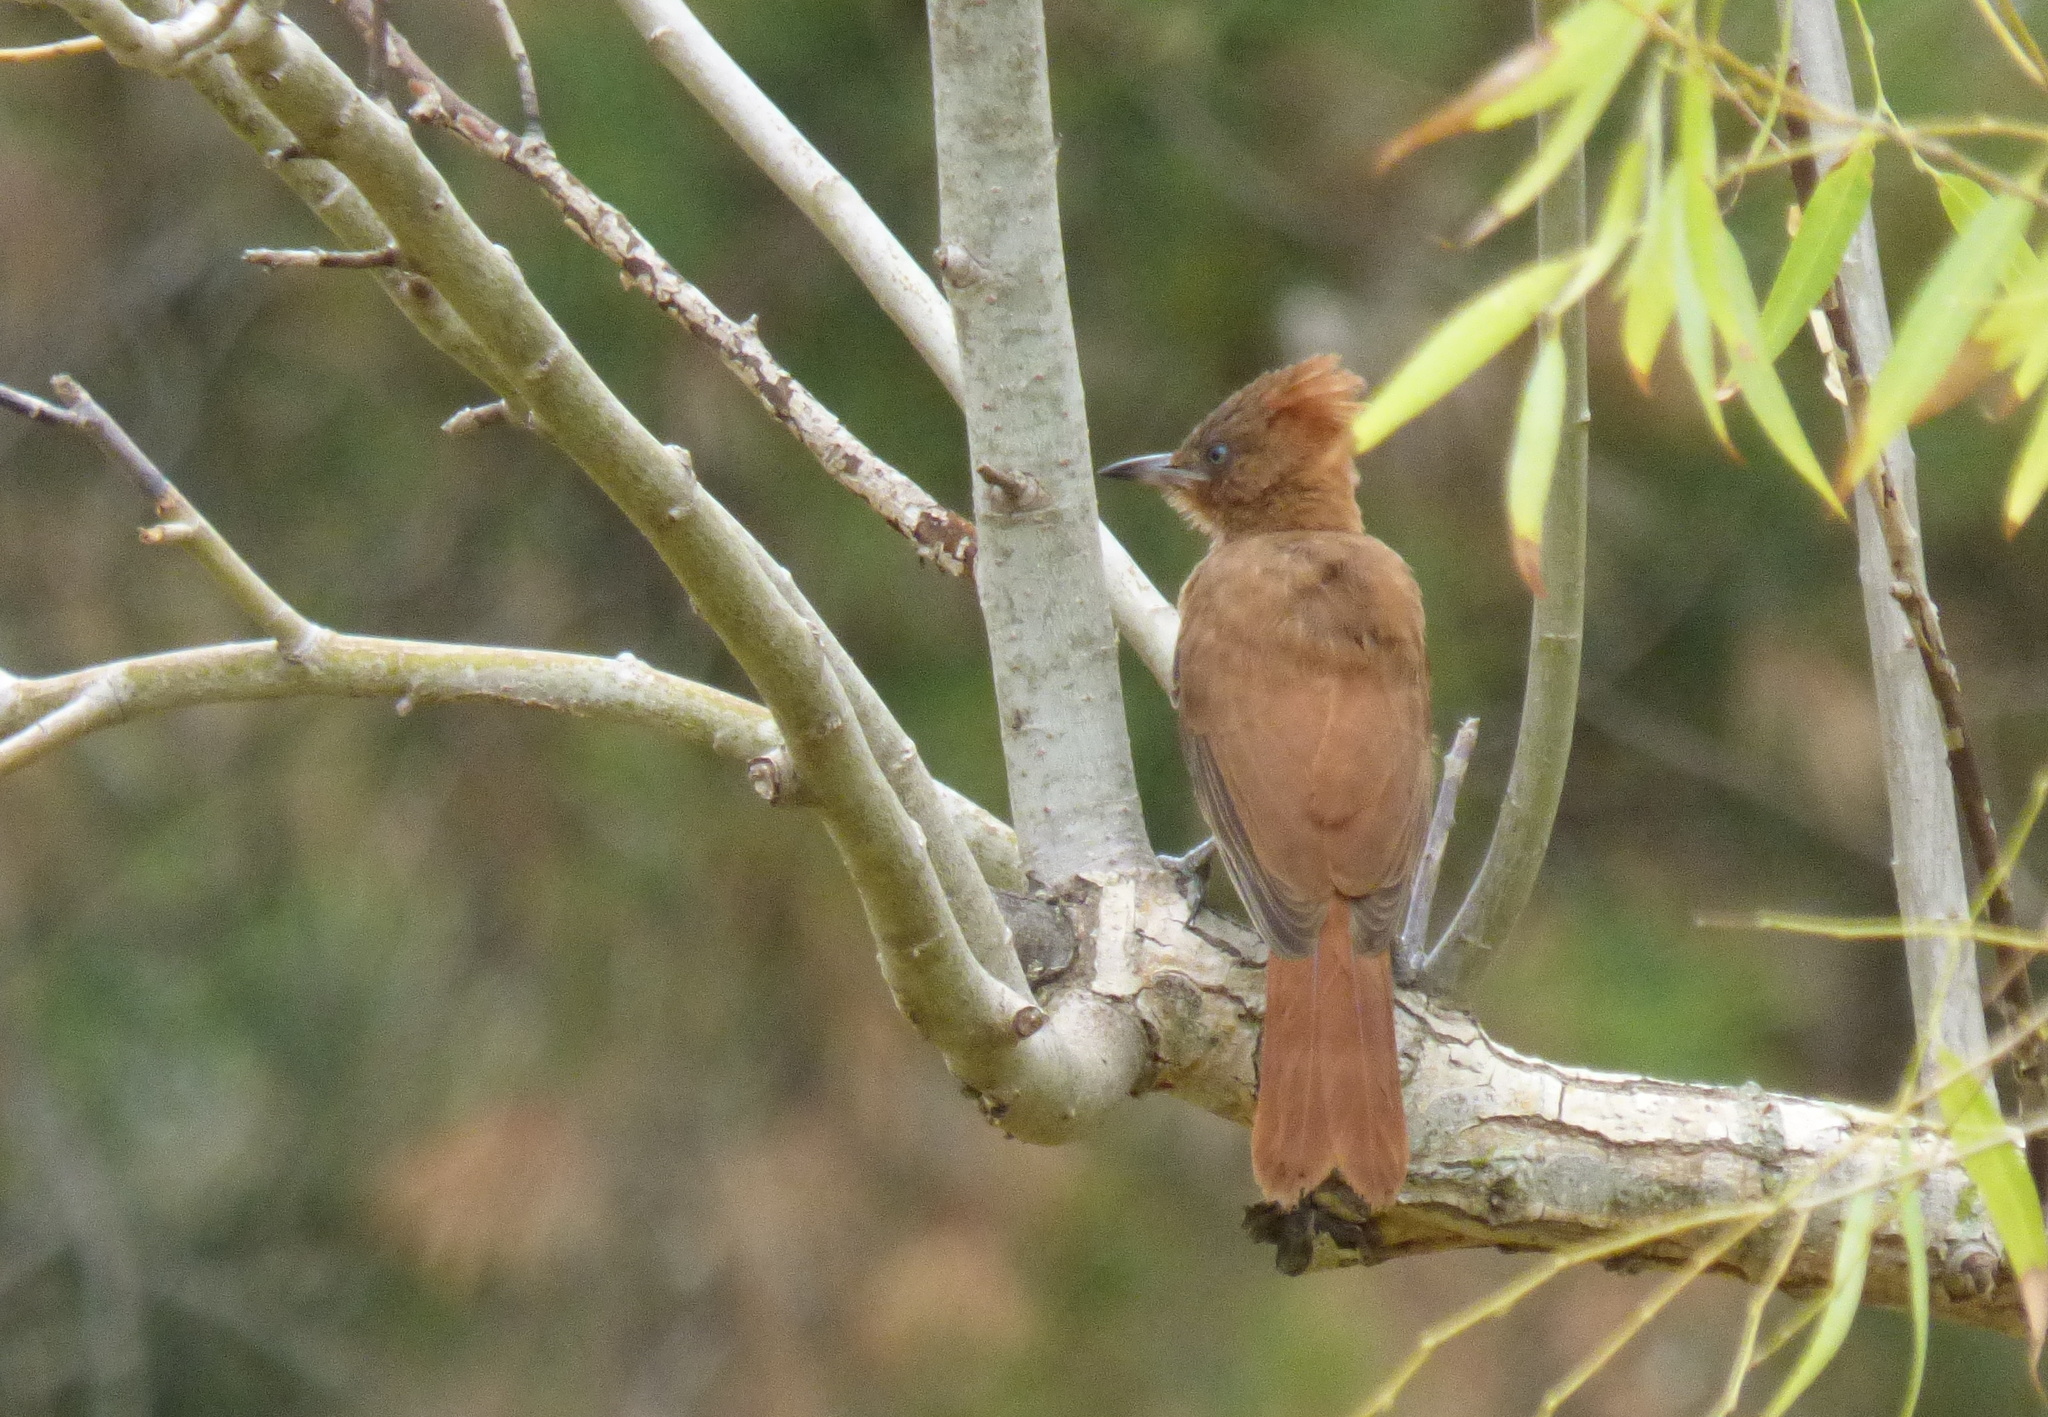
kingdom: Animalia
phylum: Chordata
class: Aves
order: Passeriformes
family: Furnariidae
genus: Pseudoseisura
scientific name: Pseudoseisura lophotes
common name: Brown cacholote
